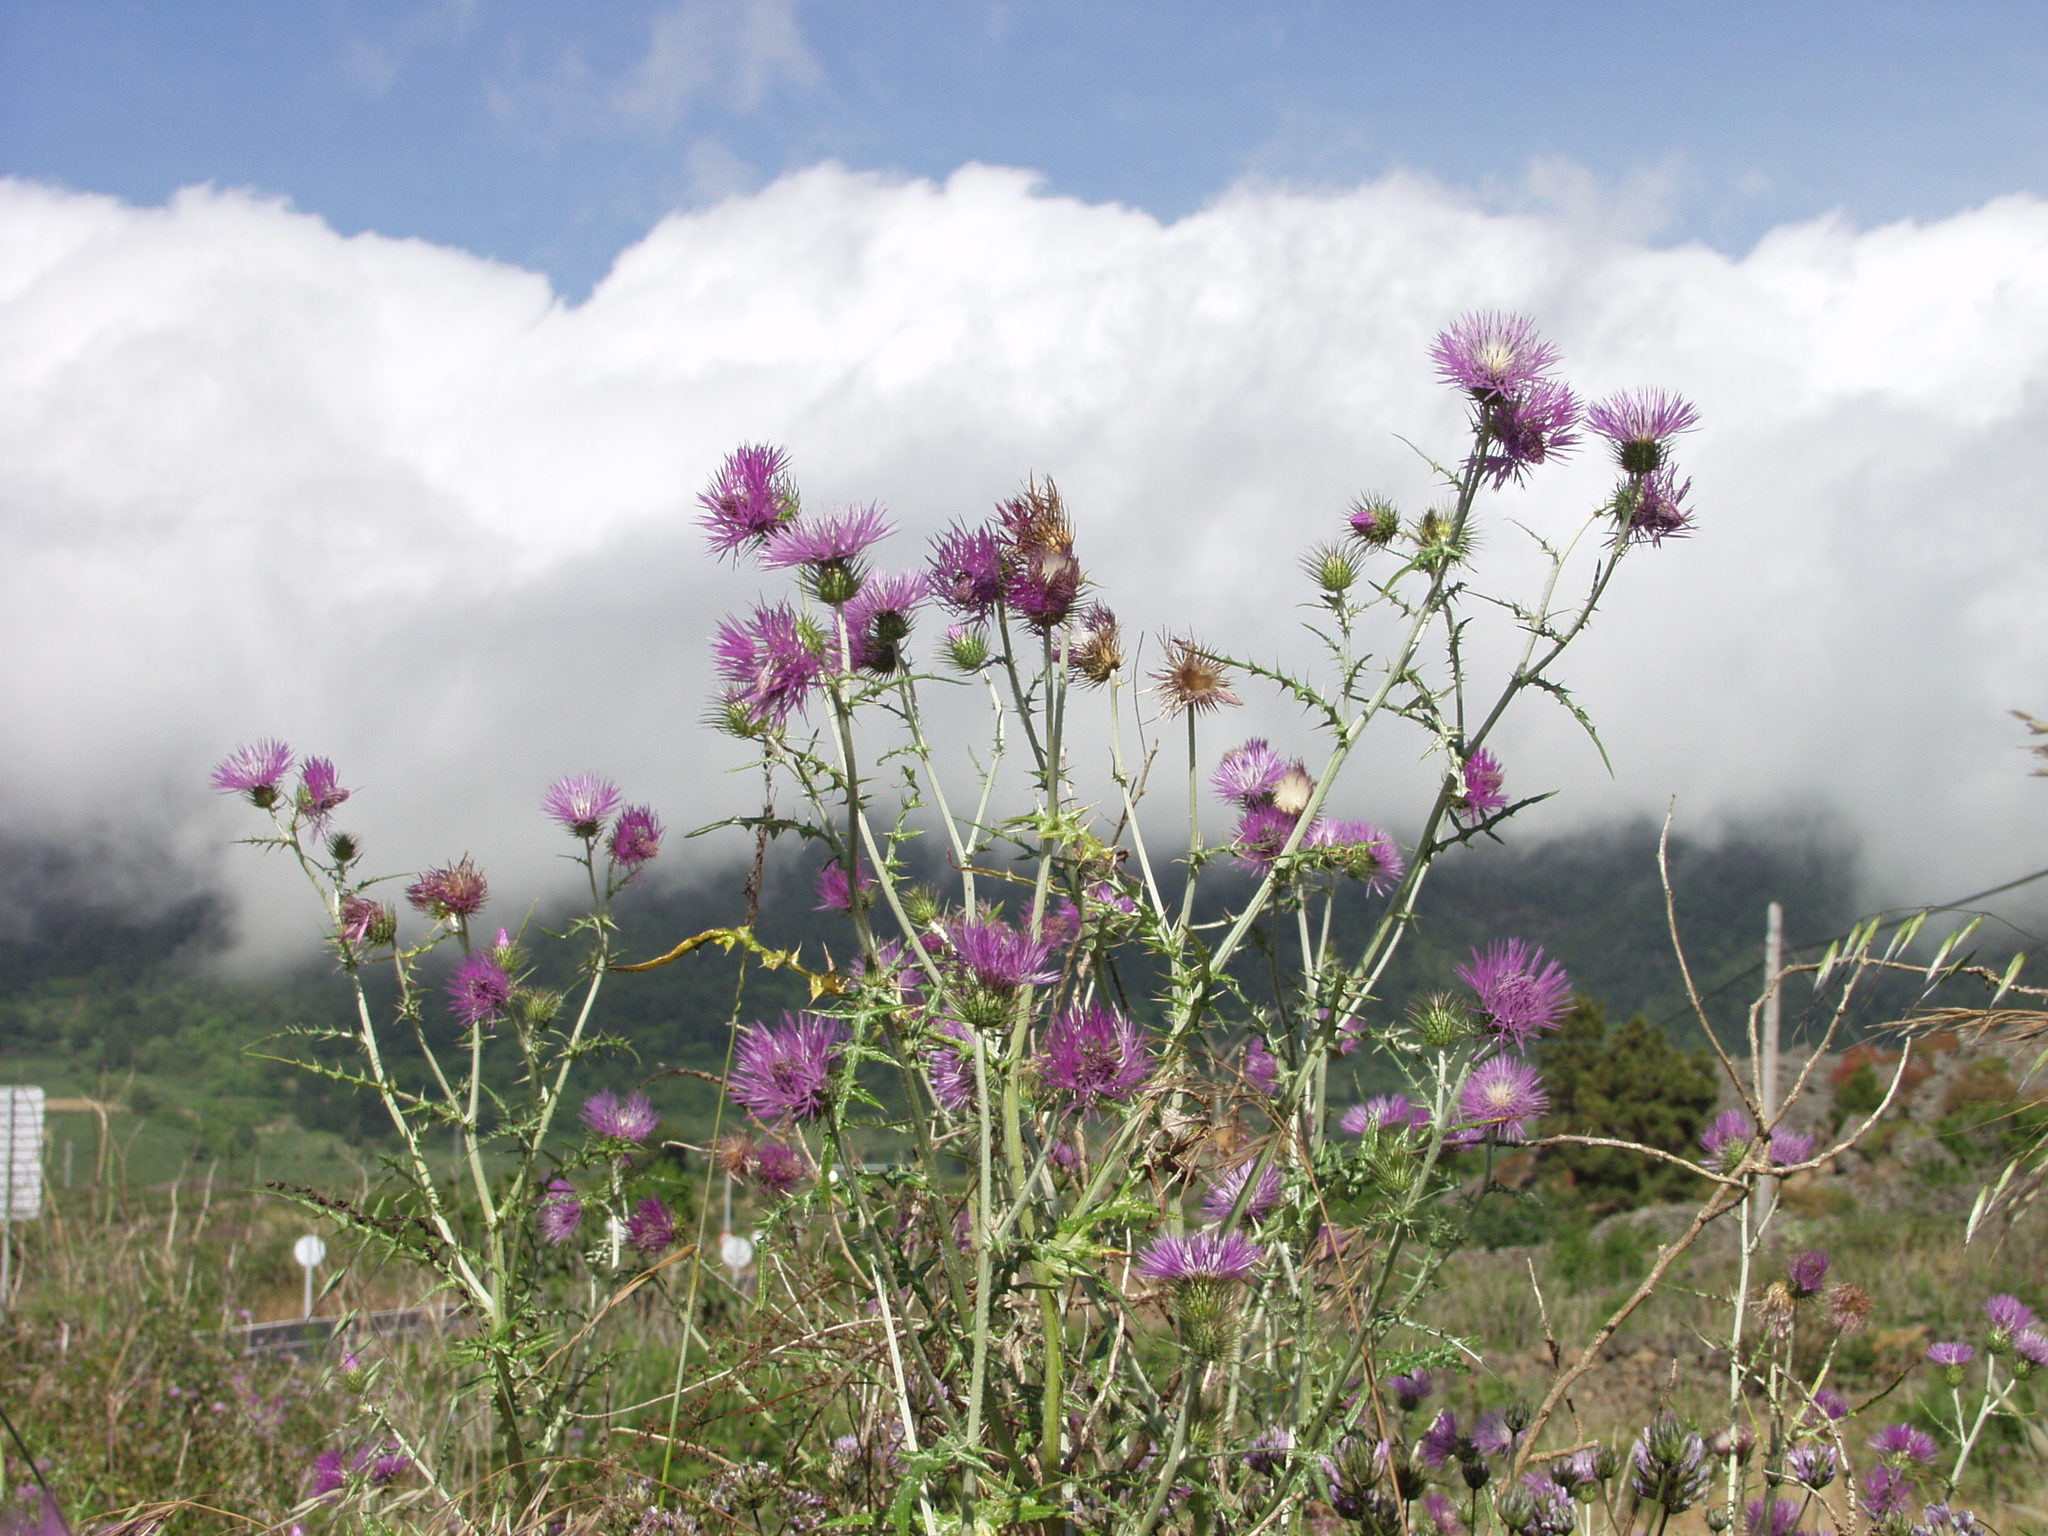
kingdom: Plantae
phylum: Tracheophyta
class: Magnoliopsida
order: Asterales
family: Asteraceae
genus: Galactites
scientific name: Galactites tomentosa
